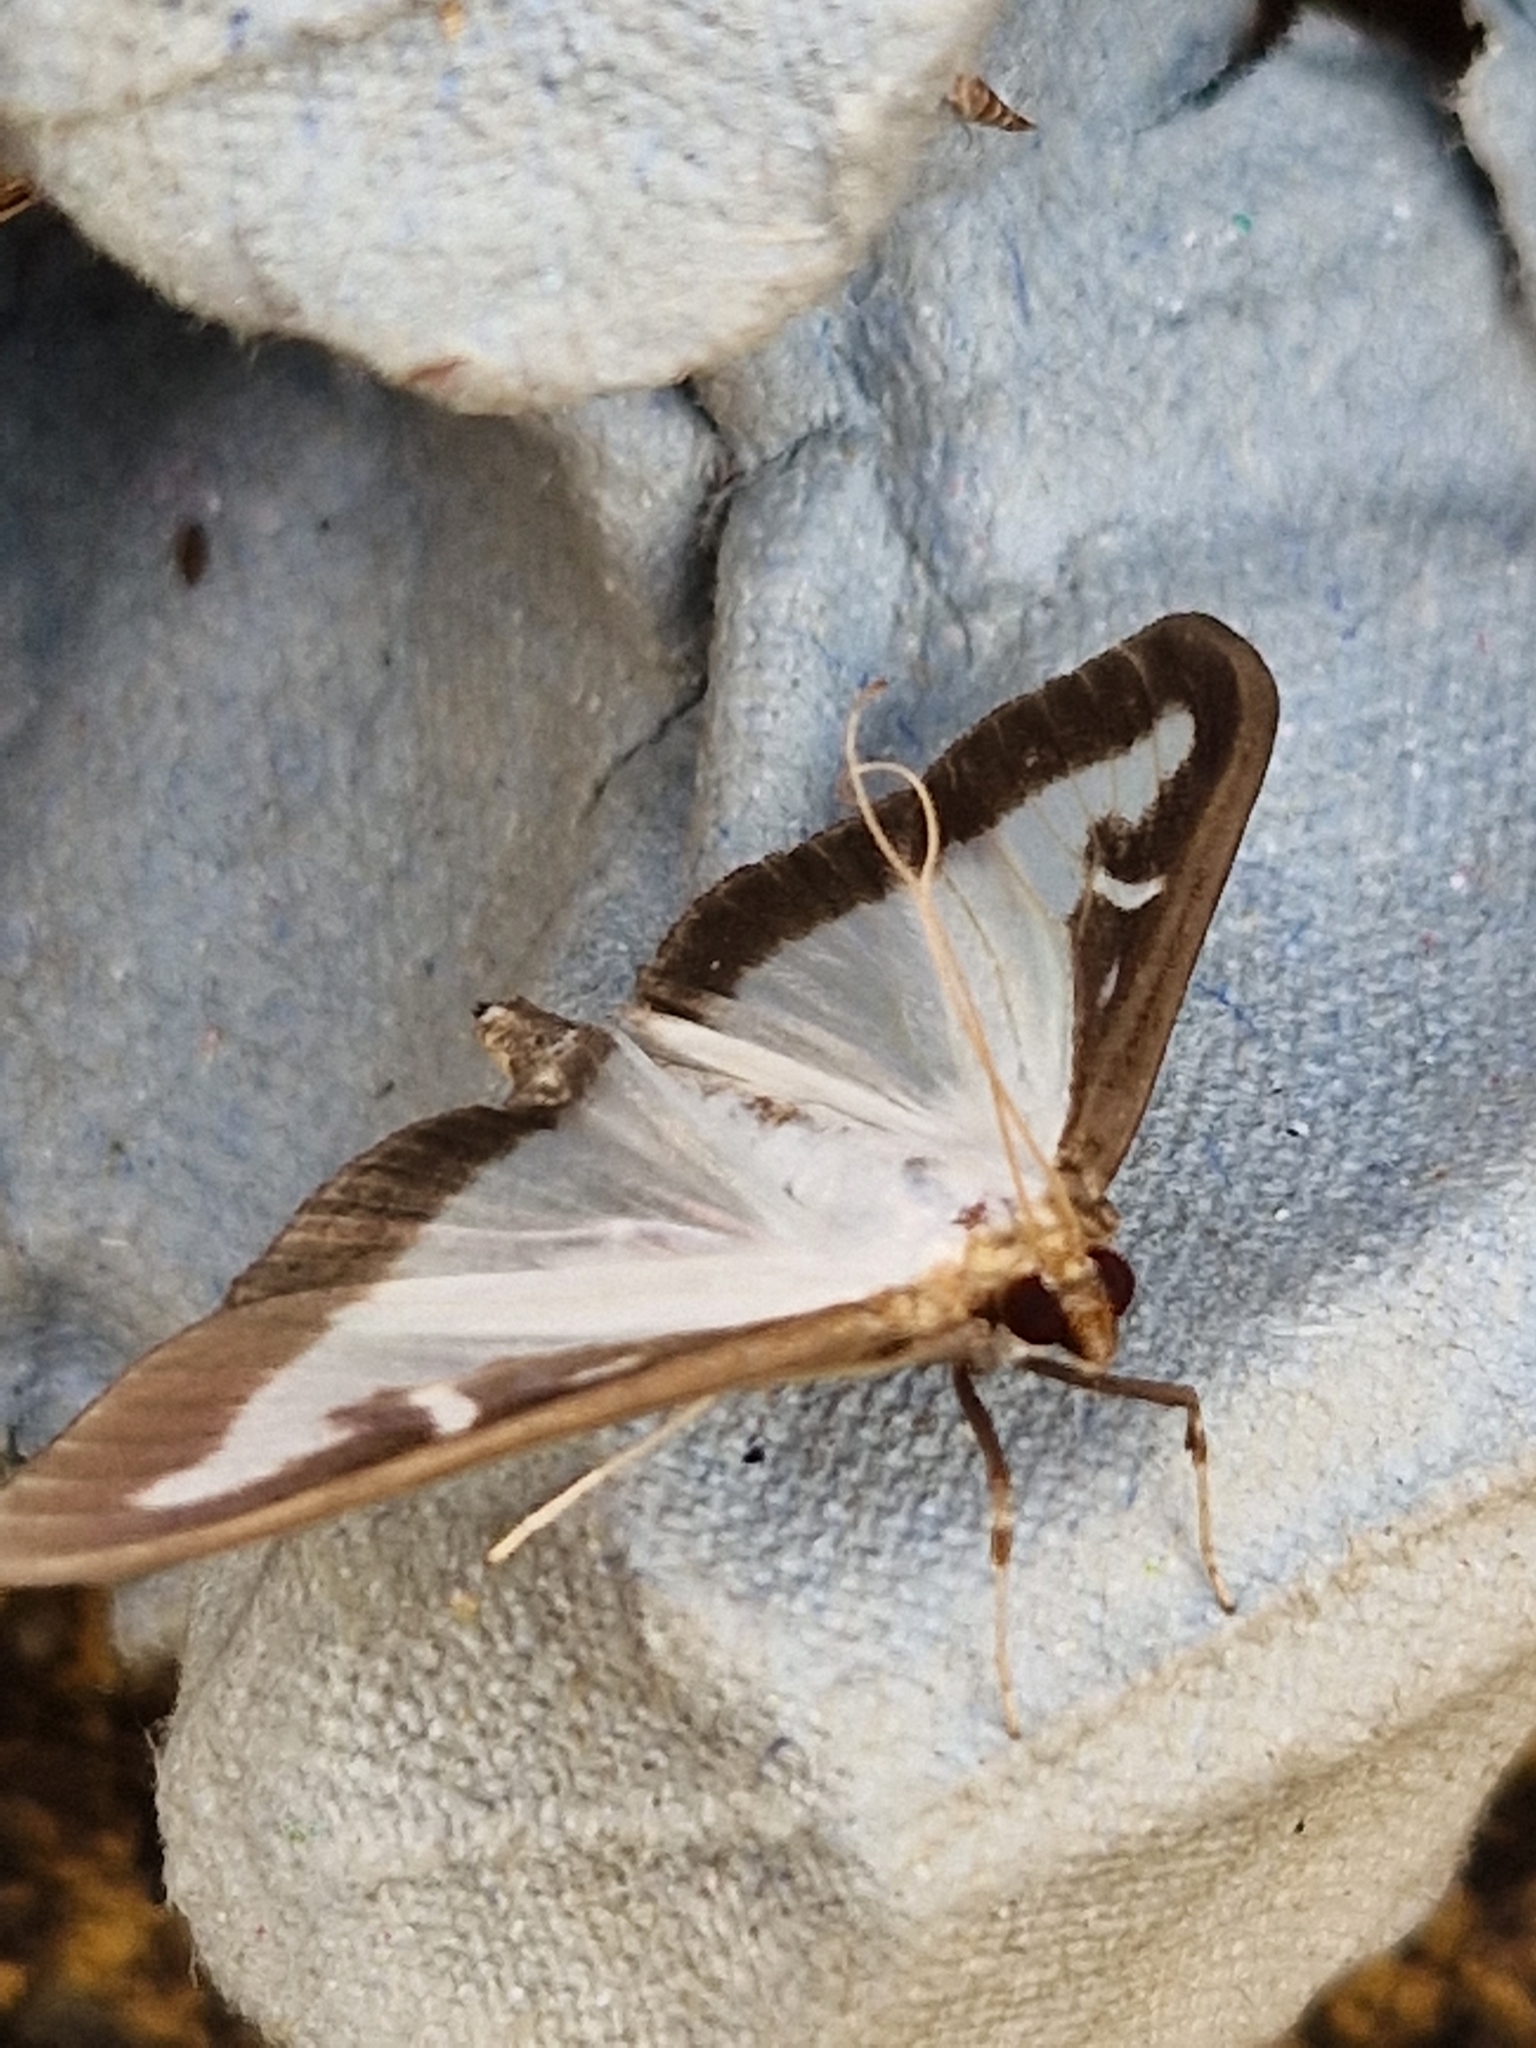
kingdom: Animalia
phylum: Arthropoda
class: Insecta
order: Lepidoptera
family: Crambidae
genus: Cydalima
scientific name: Cydalima perspectalis
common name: Box tree moth
